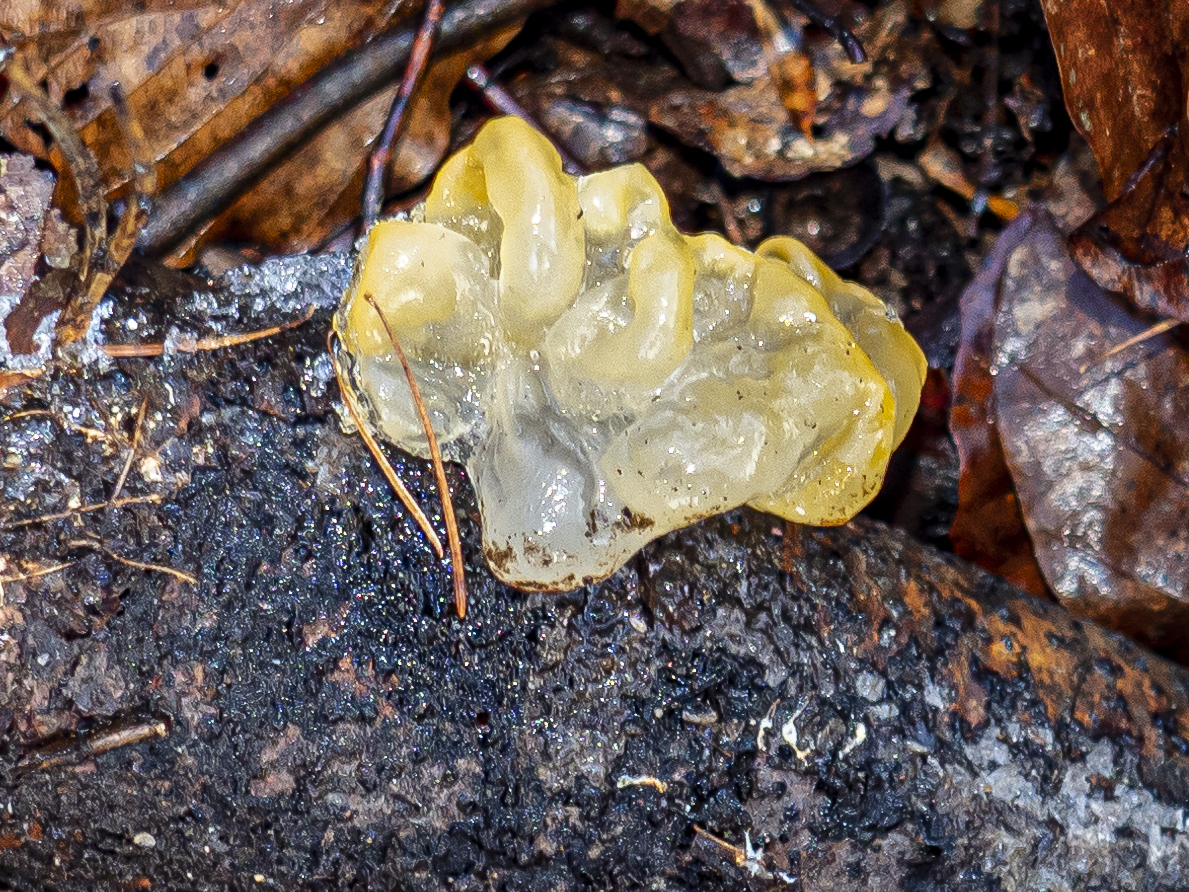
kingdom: Fungi
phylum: Basidiomycota
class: Tremellomycetes
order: Tremellales
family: Tremellaceae
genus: Tremella
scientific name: Tremella mesenterica
